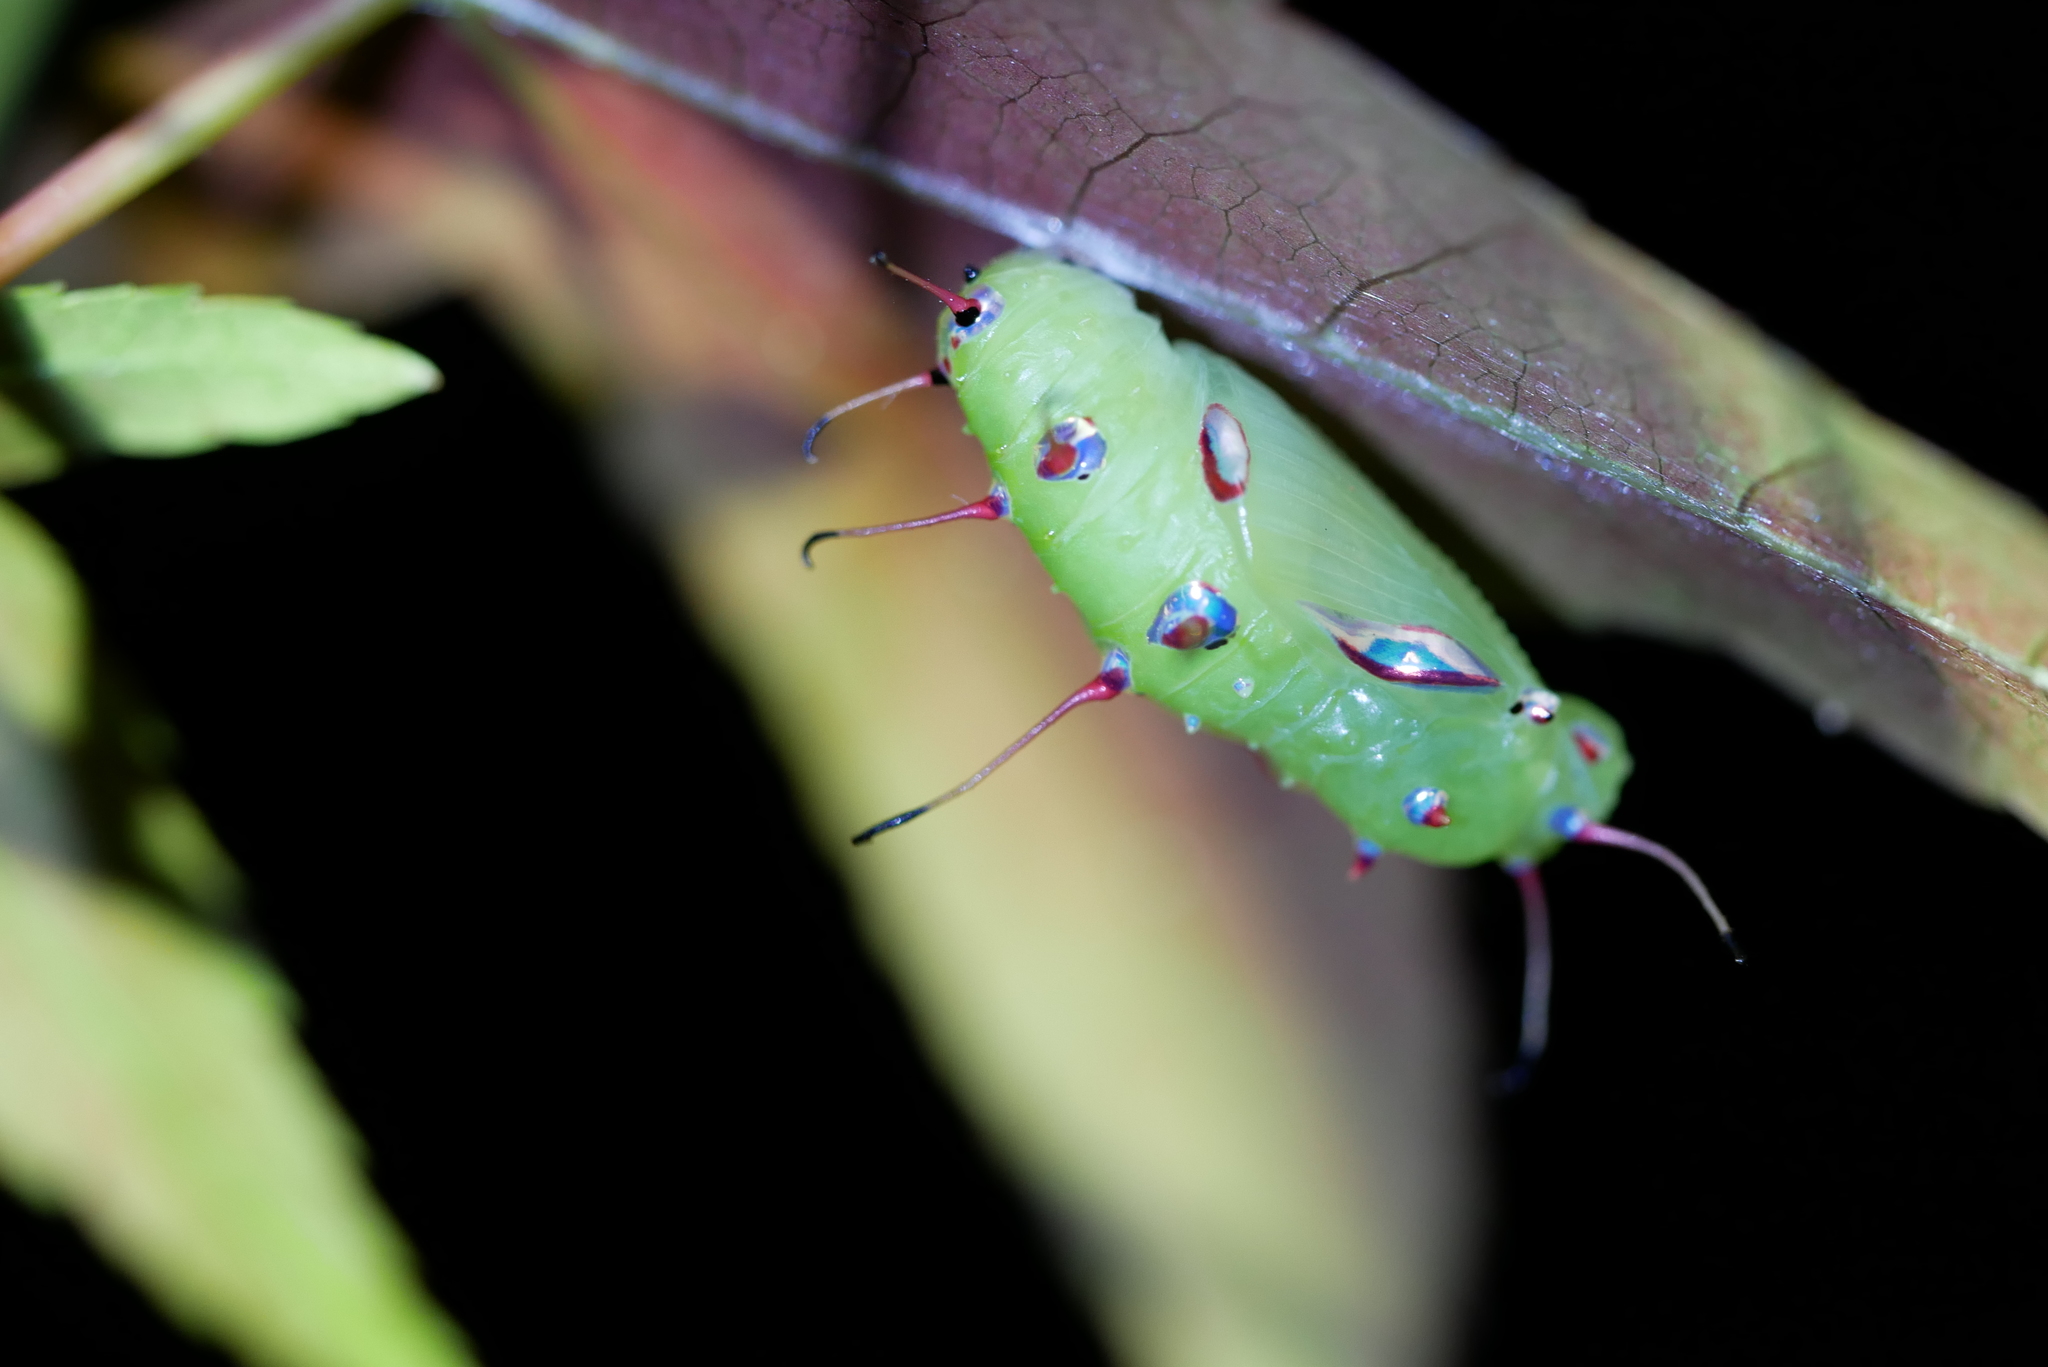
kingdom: Animalia
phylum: Arthropoda
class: Insecta
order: Lepidoptera
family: Nymphalidae
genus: Phalanta
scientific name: Phalanta phalantha
